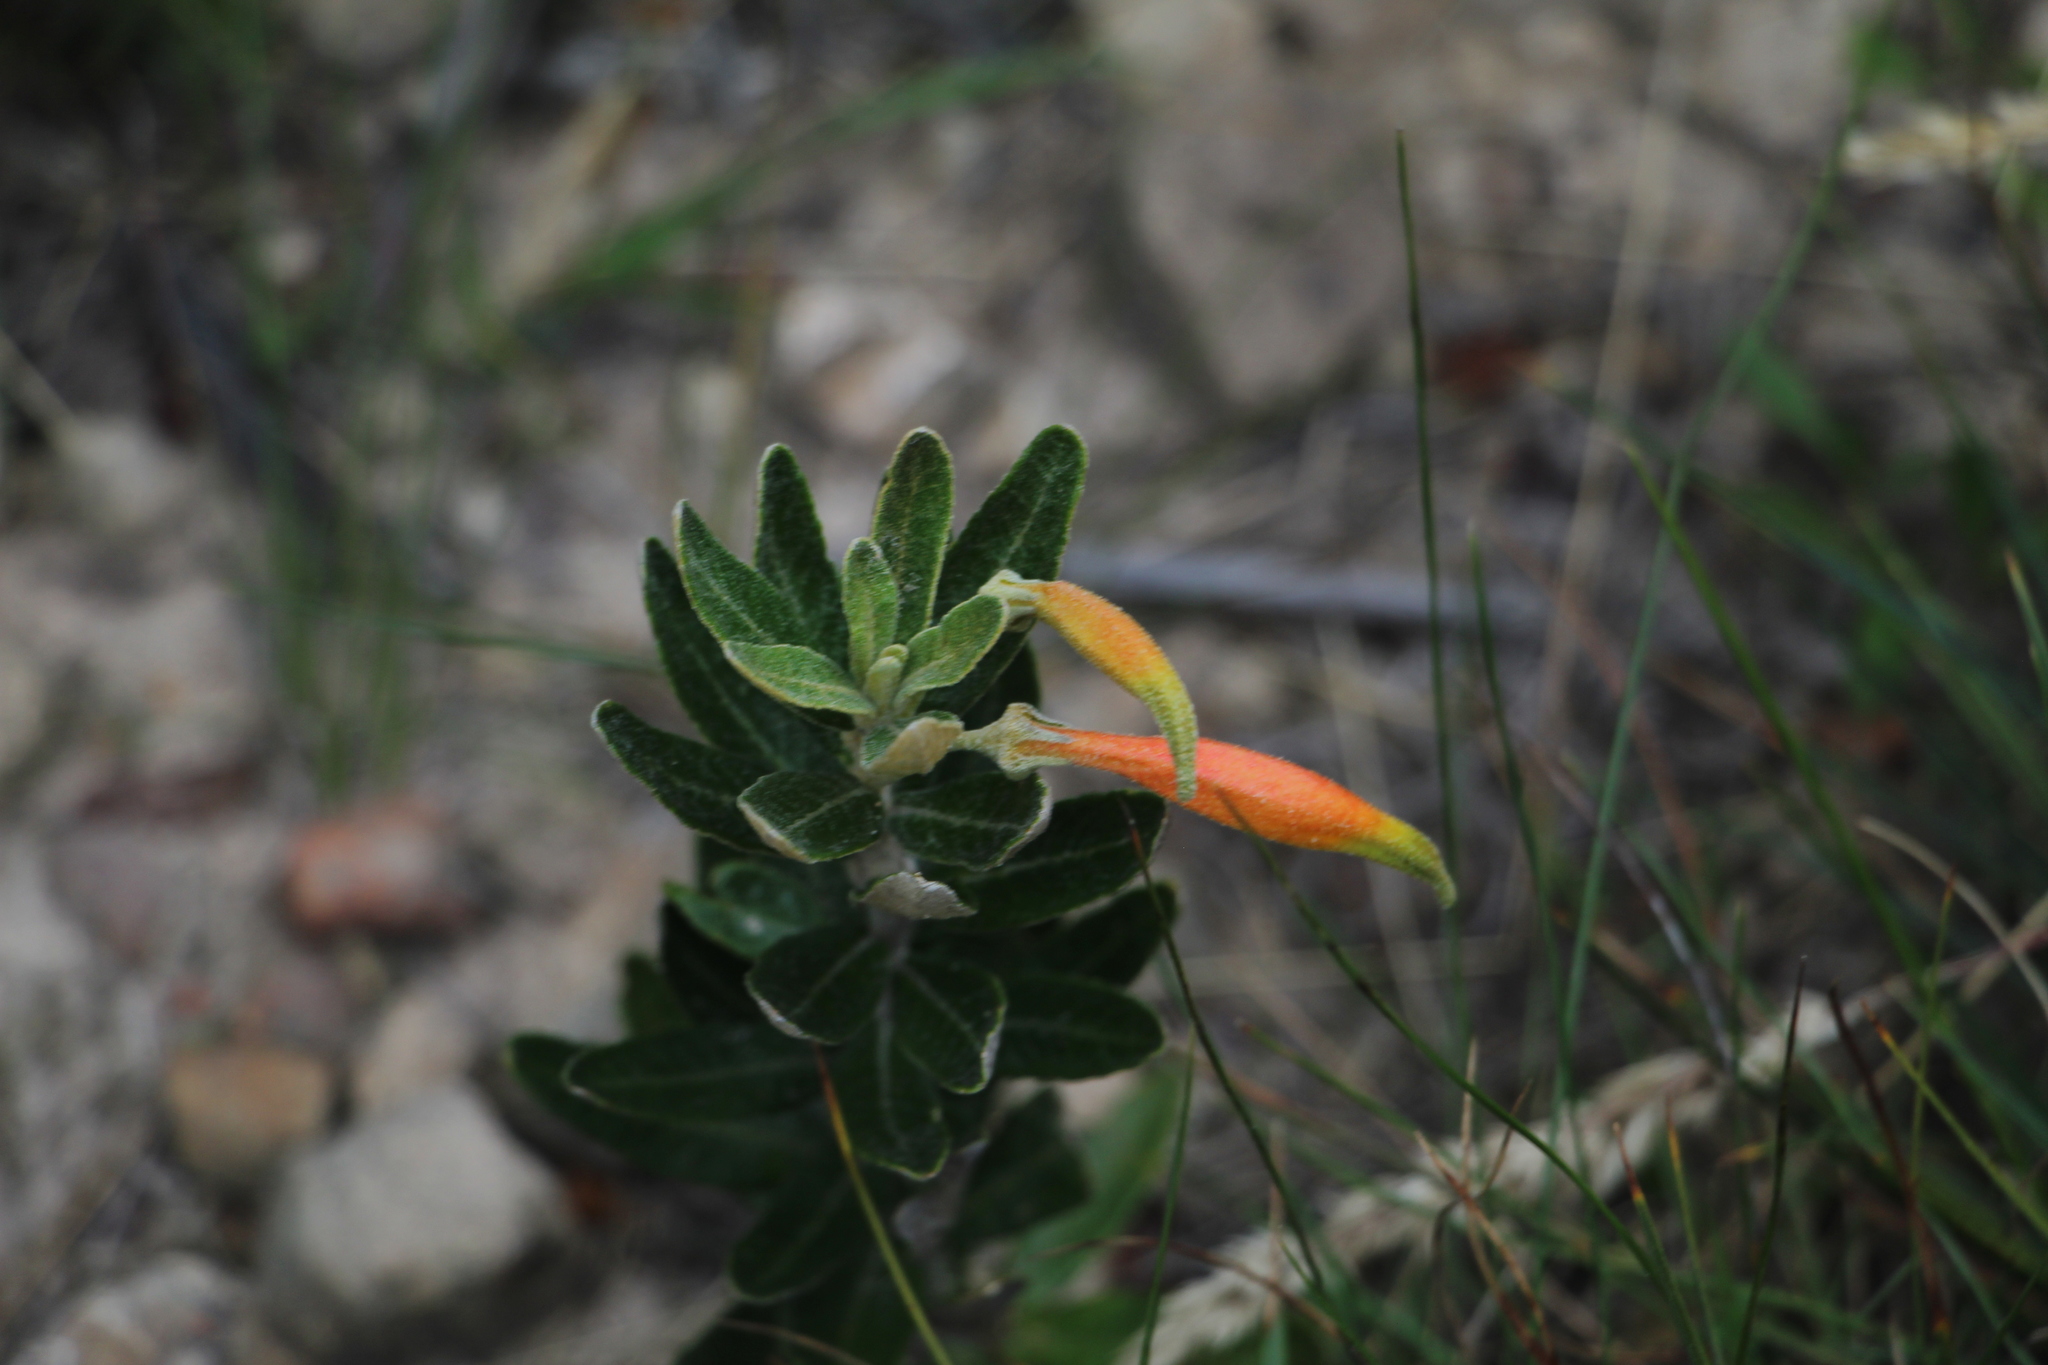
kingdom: Plantae
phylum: Tracheophyta
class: Magnoliopsida
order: Asterales
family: Campanulaceae
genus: Siphocampylus
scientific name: Siphocampylus columnae
